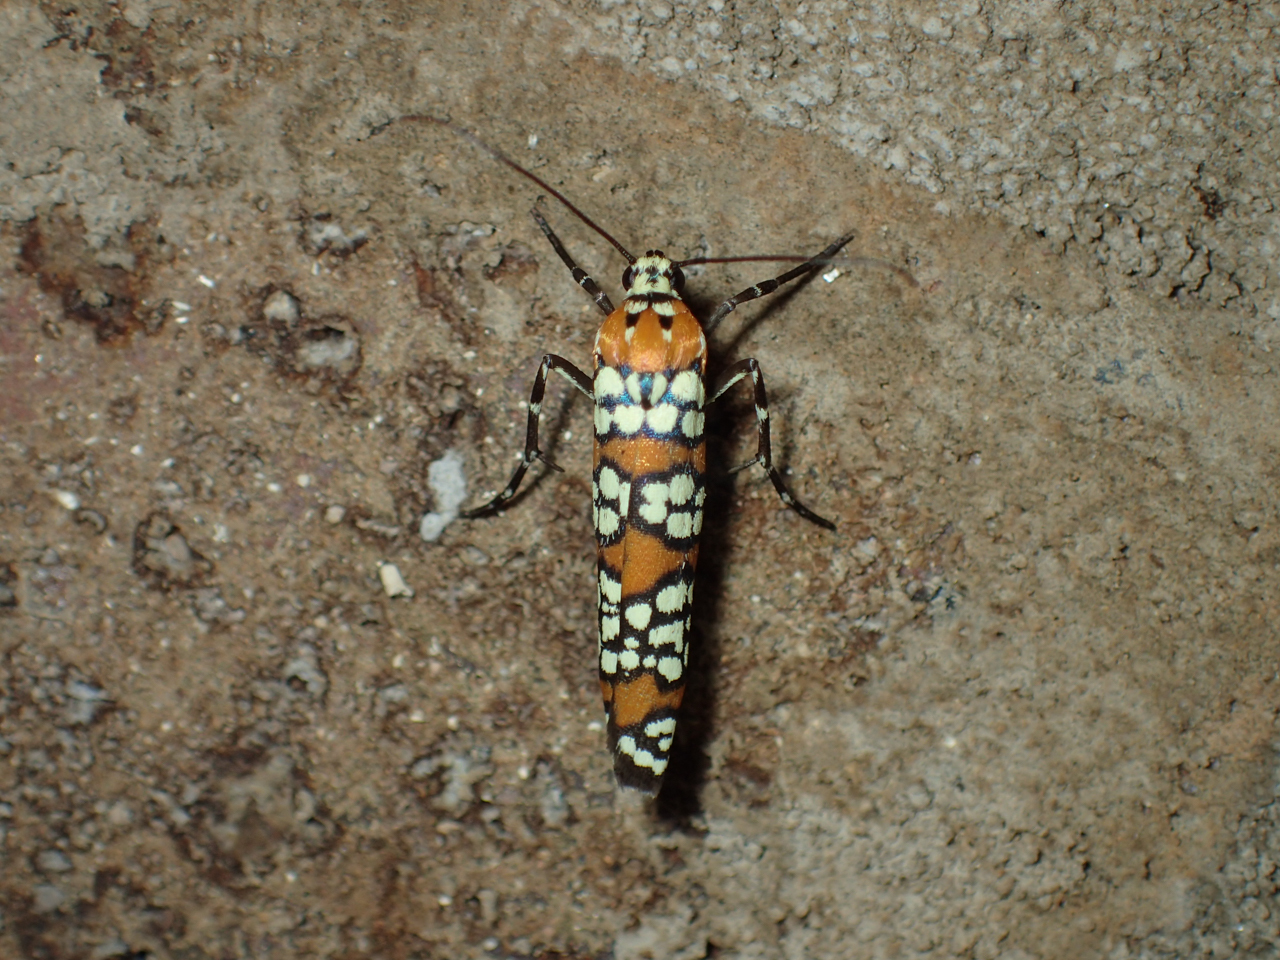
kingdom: Animalia
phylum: Arthropoda
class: Insecta
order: Lepidoptera
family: Attevidae
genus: Atteva
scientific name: Atteva punctella
